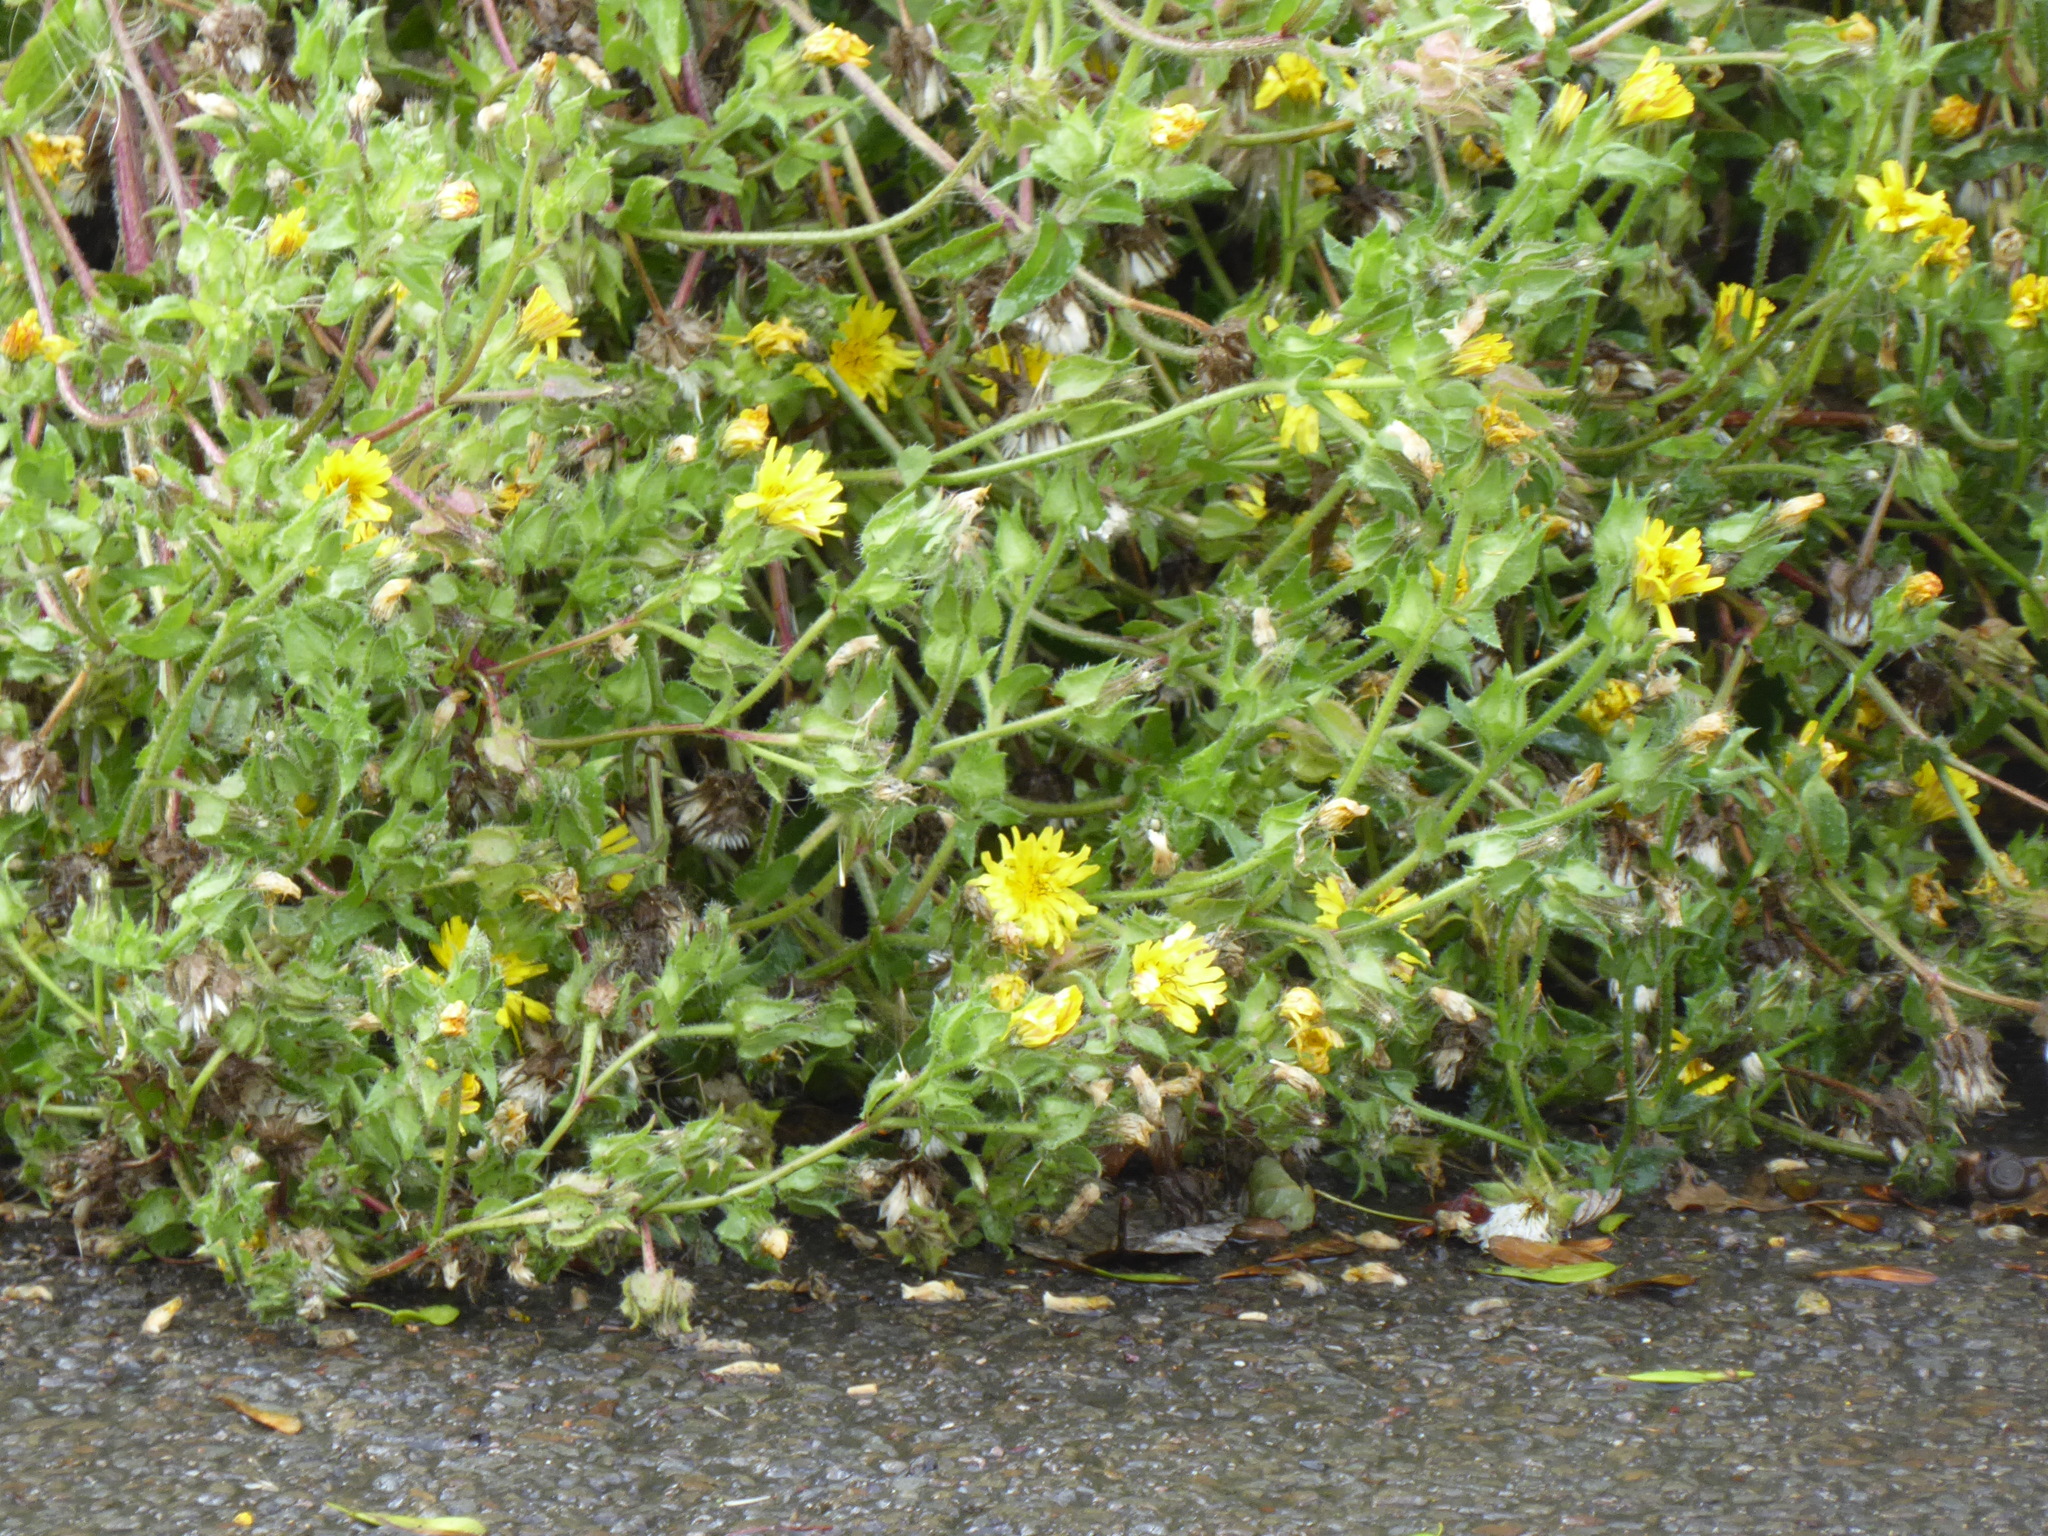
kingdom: Plantae
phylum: Tracheophyta
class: Magnoliopsida
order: Asterales
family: Asteraceae
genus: Helminthotheca
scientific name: Helminthotheca echioides
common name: Ox-tongue
